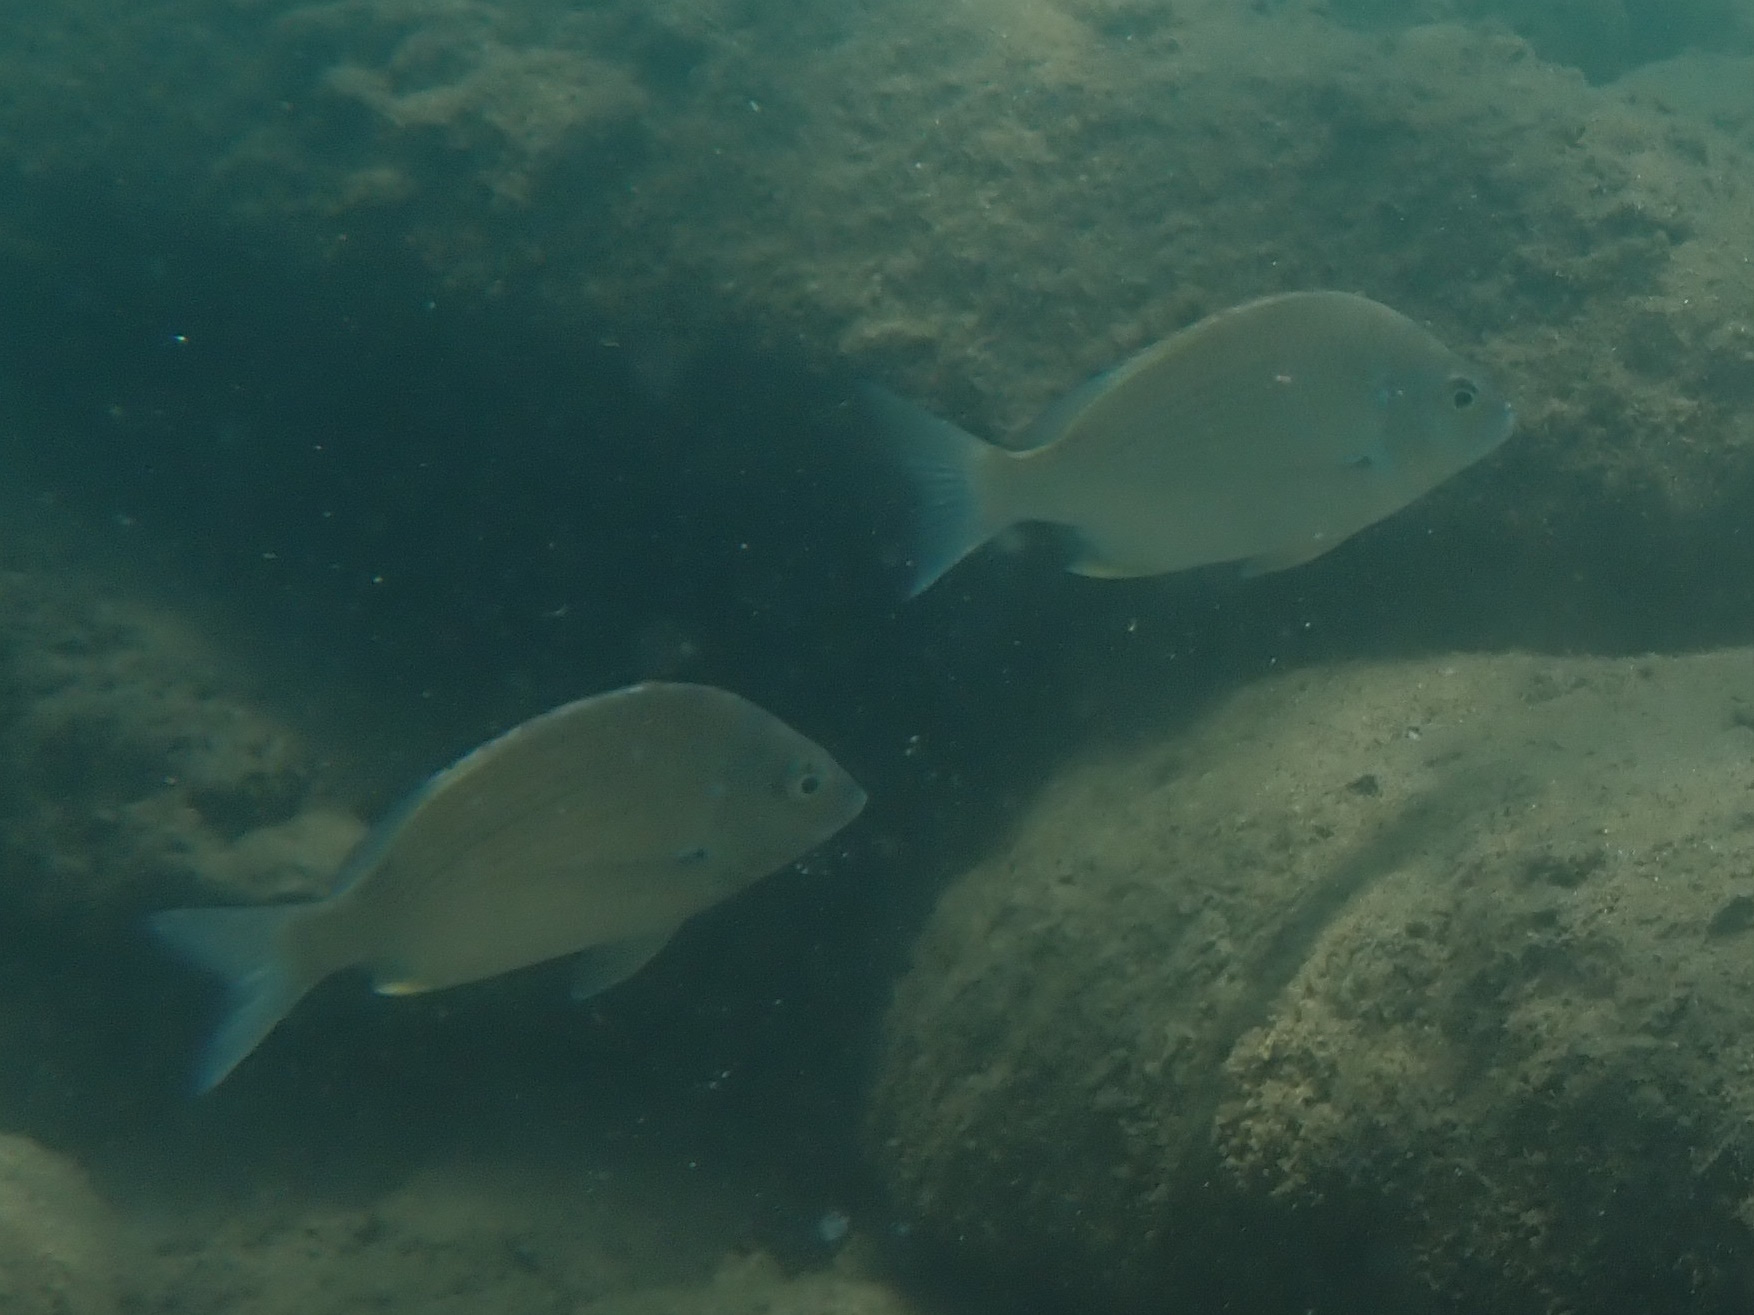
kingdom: Animalia
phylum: Chordata
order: Perciformes
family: Sparidae
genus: Acanthopagrus
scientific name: Acanthopagrus australis
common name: Surf bream
